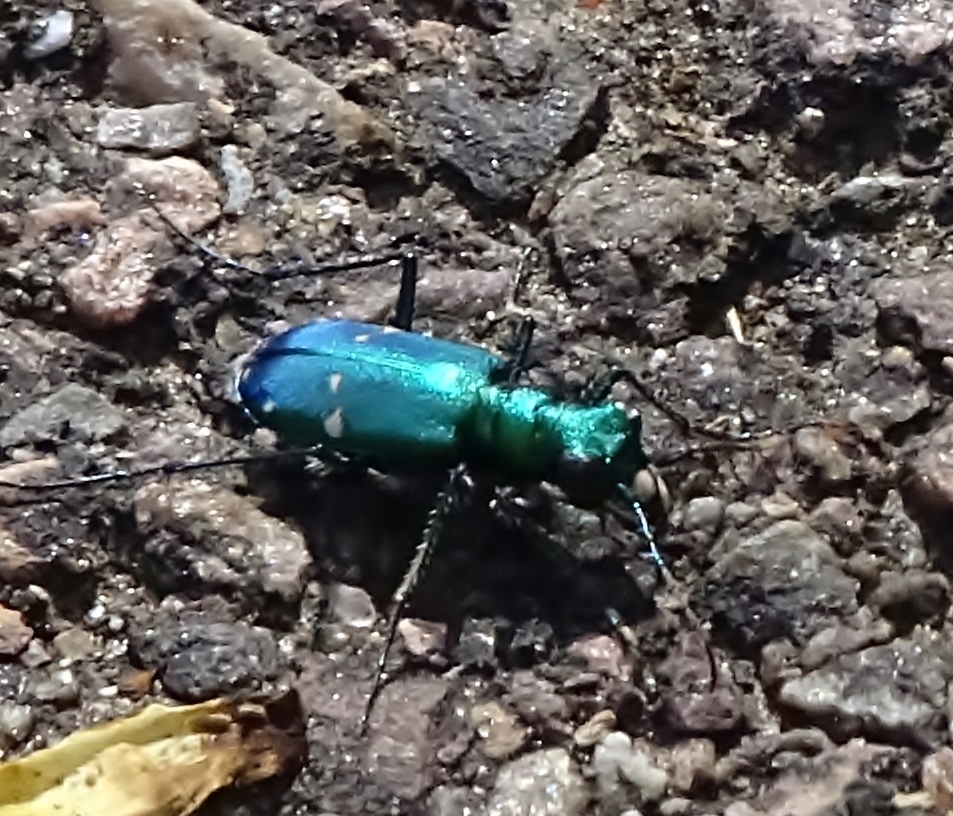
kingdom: Animalia
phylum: Arthropoda
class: Insecta
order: Coleoptera
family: Carabidae
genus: Cicindela
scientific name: Cicindela sexguttata
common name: Six-spotted tiger beetle
